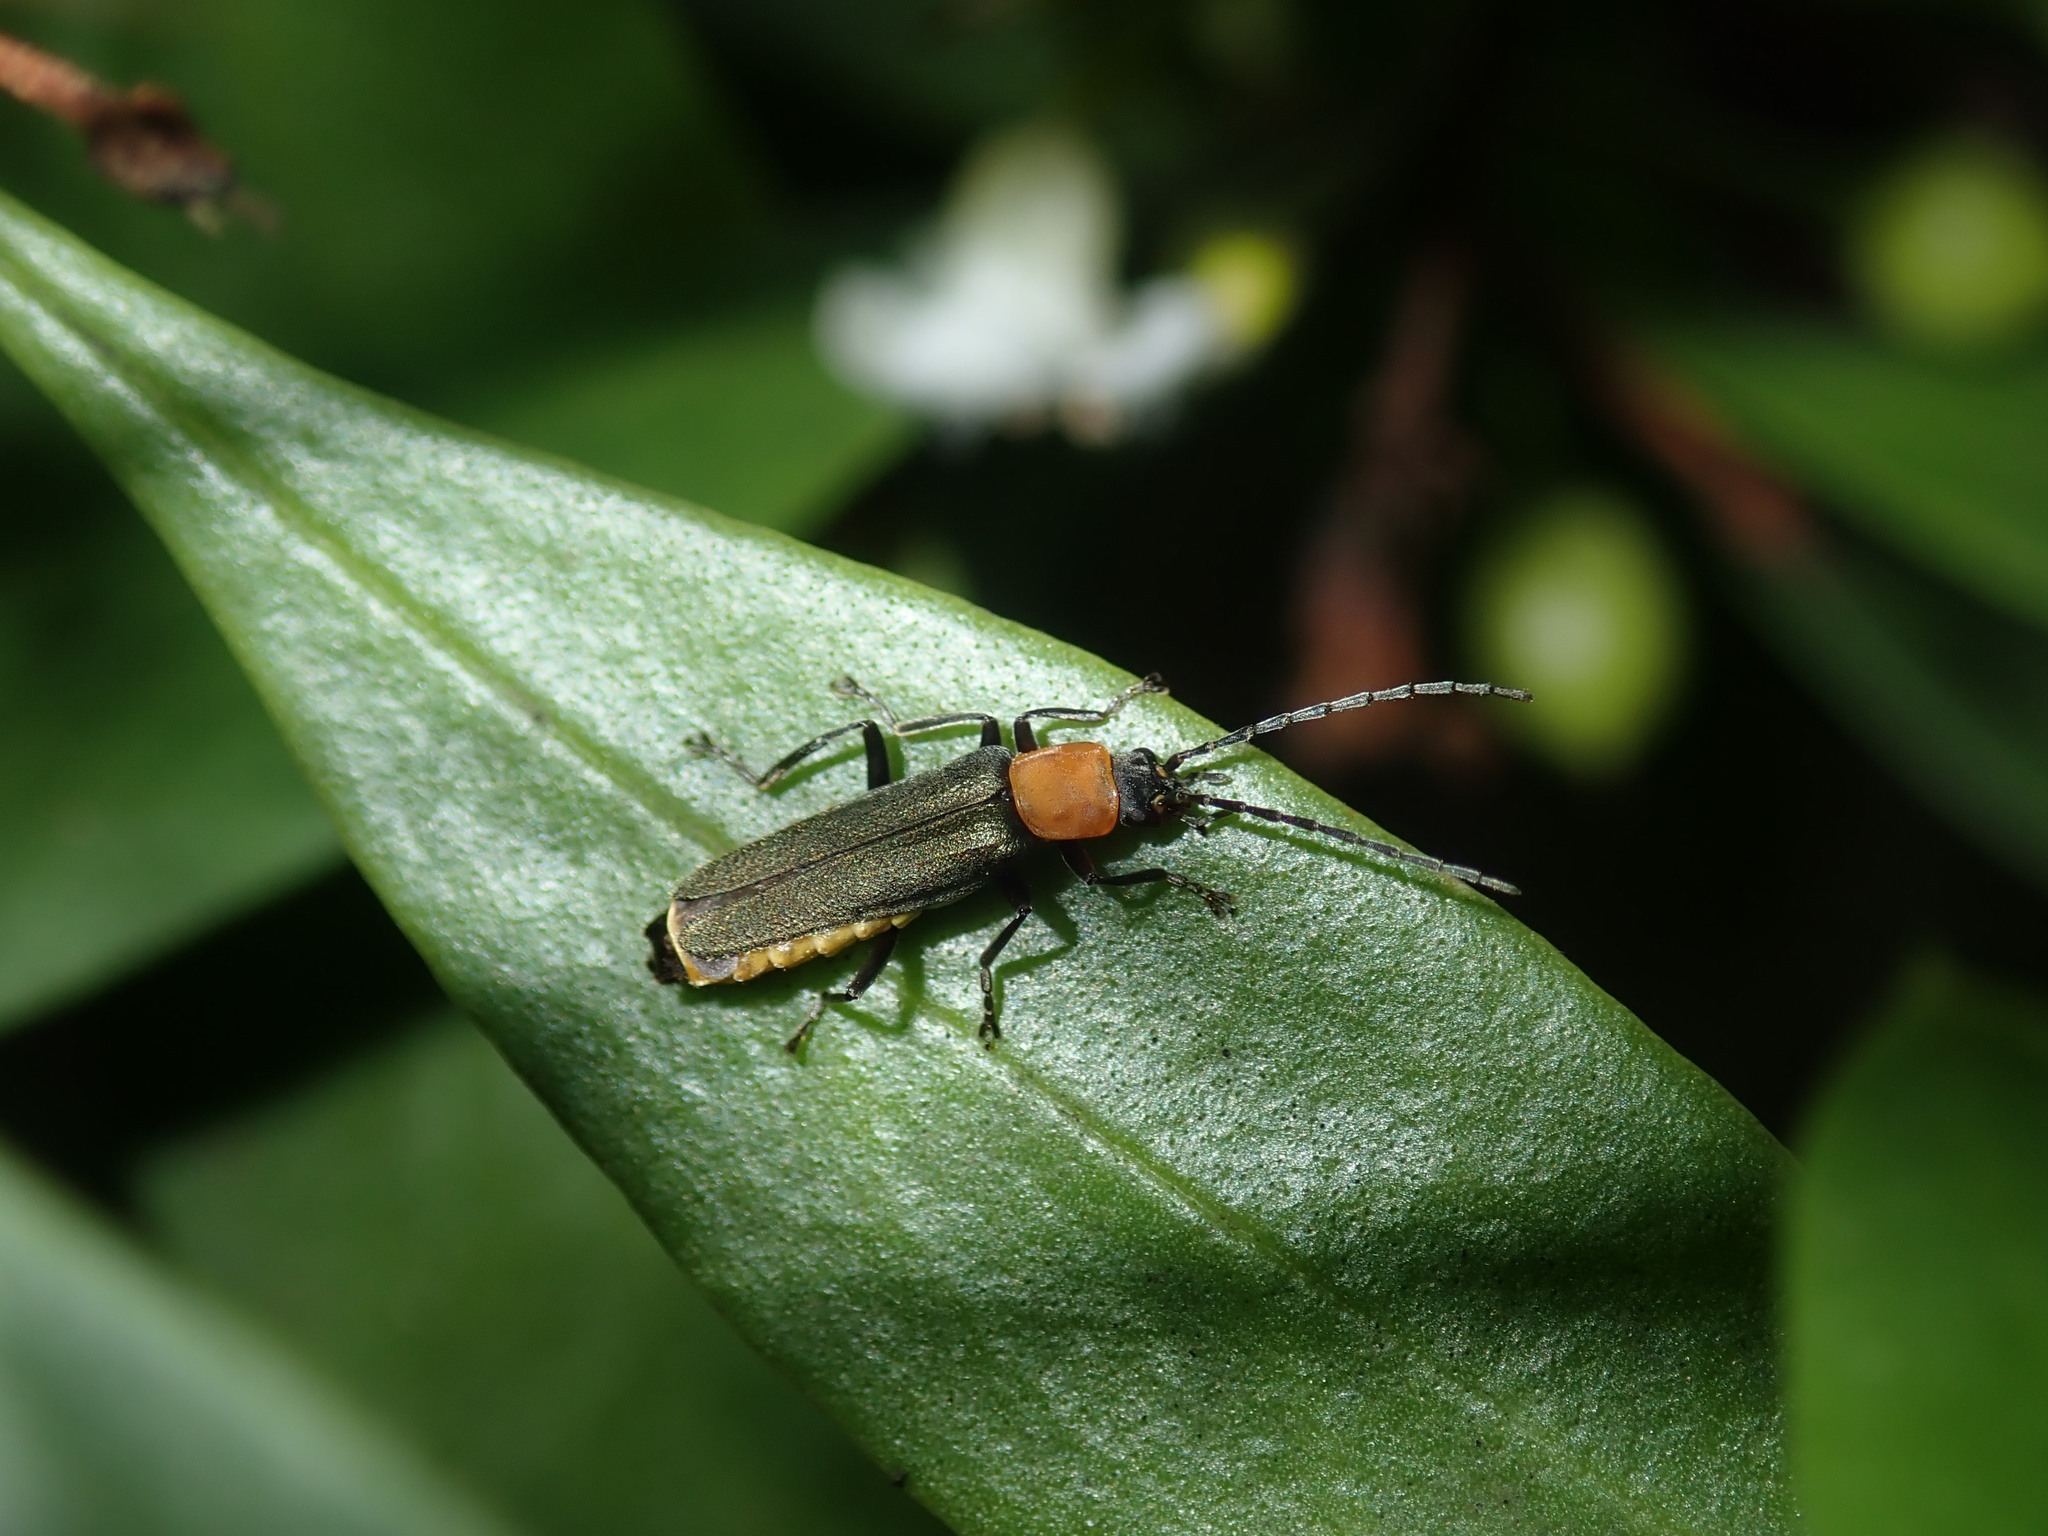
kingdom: Animalia
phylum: Arthropoda
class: Insecta
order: Coleoptera
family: Cantharidae
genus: Chauliognathus
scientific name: Chauliognathus
